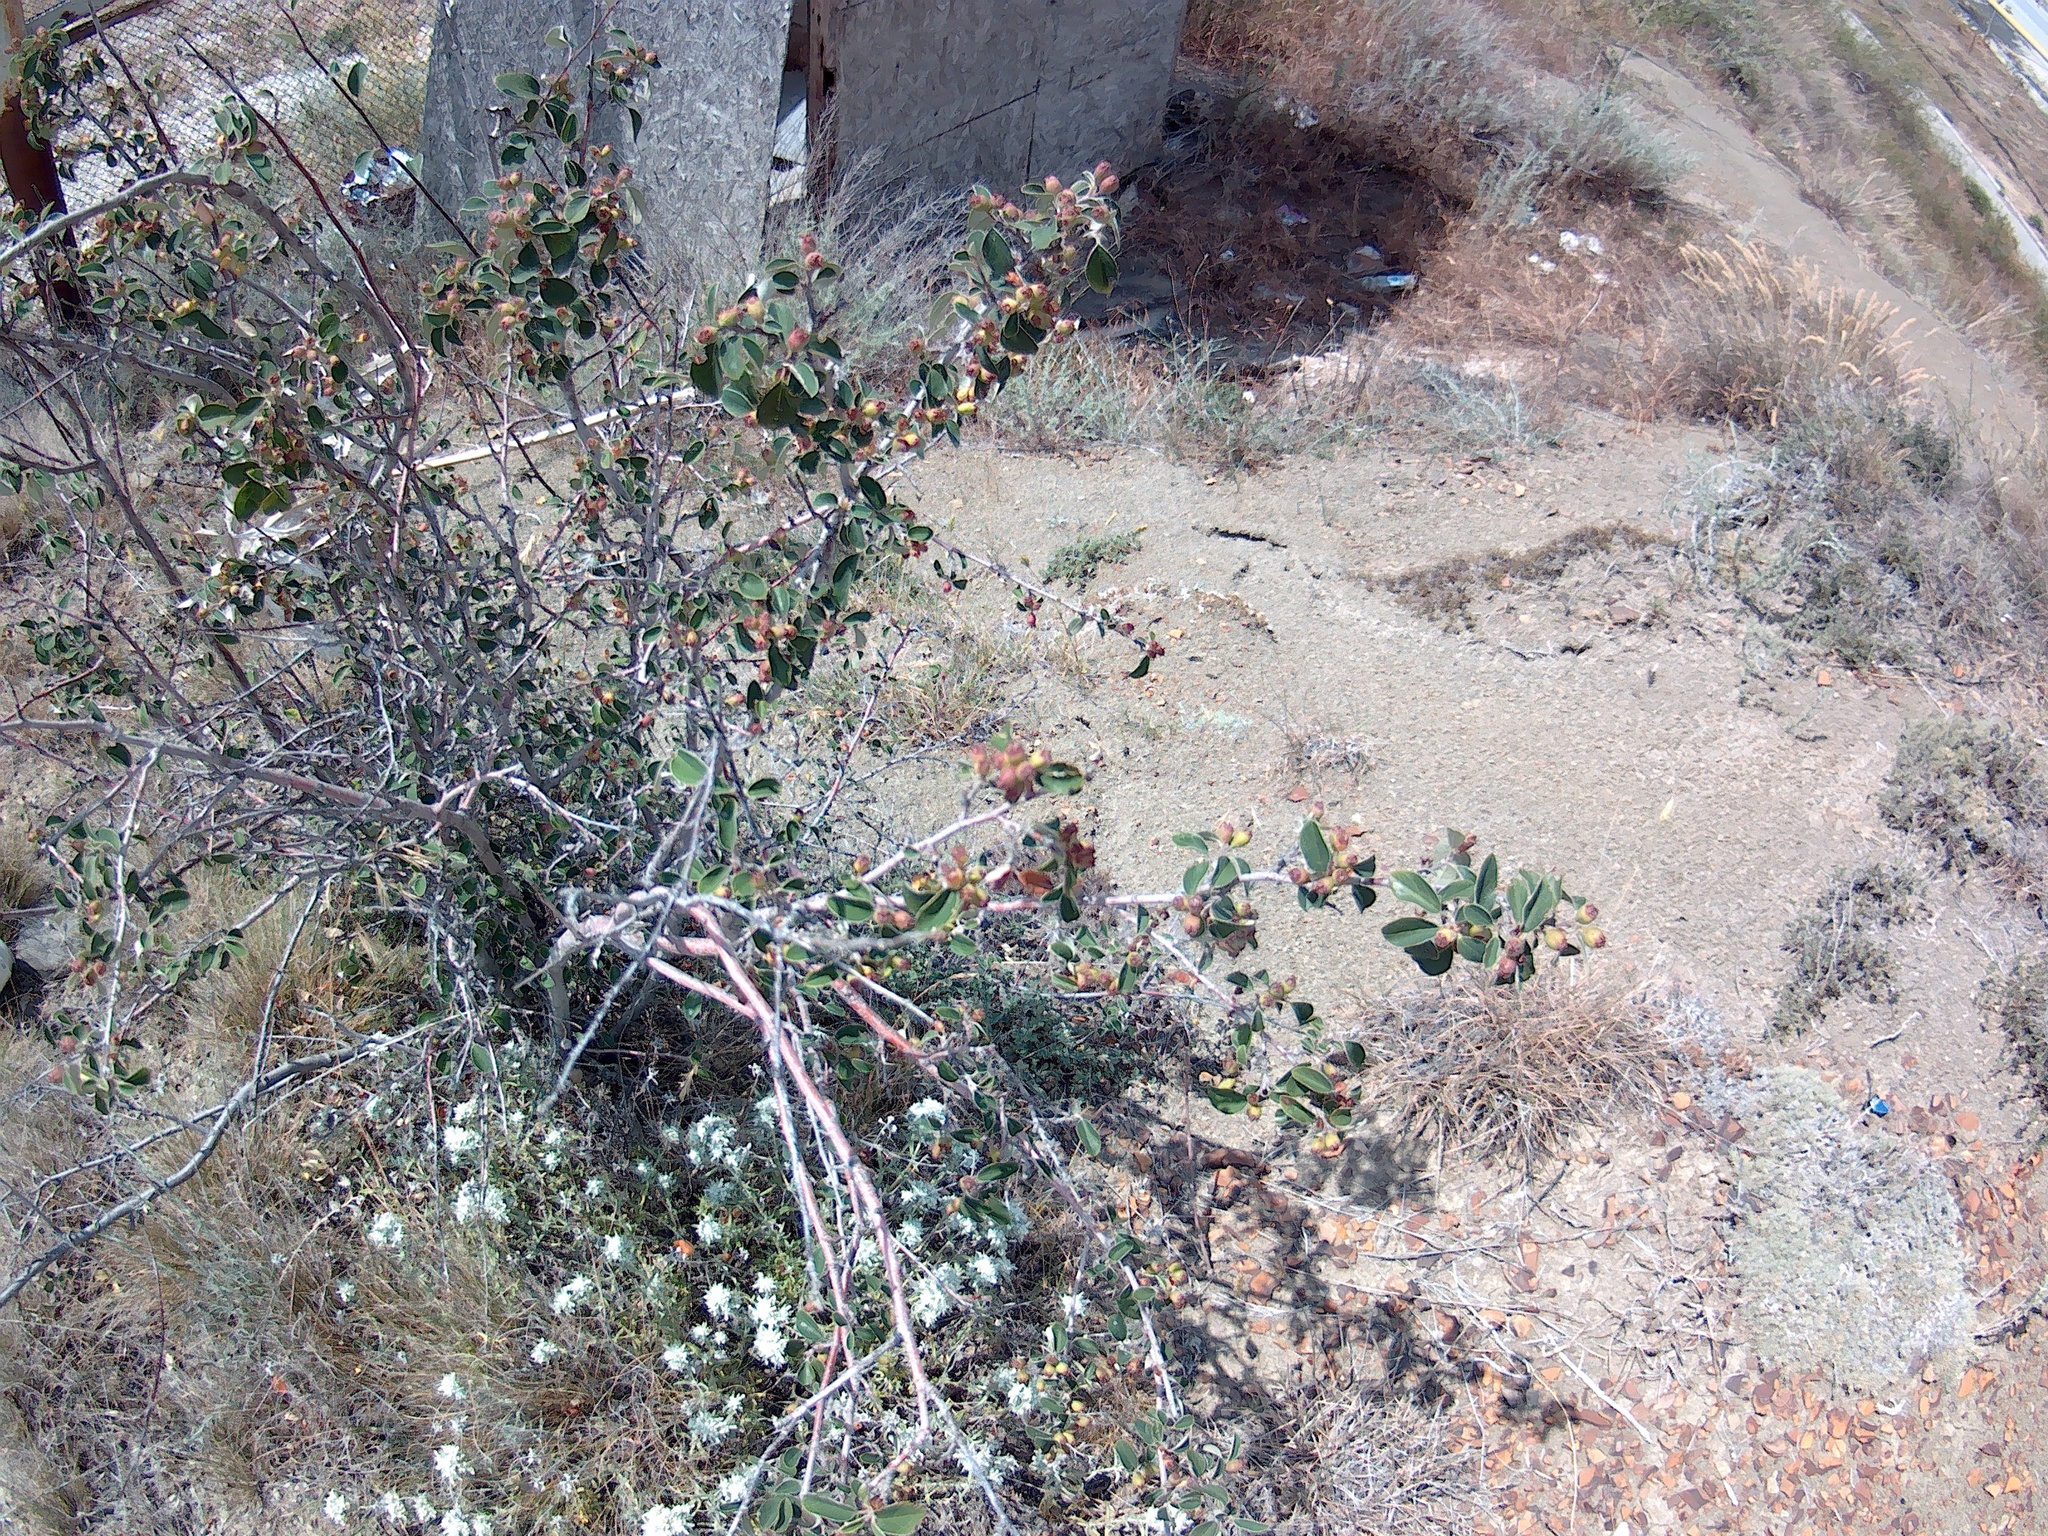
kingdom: Plantae
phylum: Tracheophyta
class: Magnoliopsida
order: Rosales
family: Rosaceae
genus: Cotoneaster
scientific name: Cotoneaster tauricus
